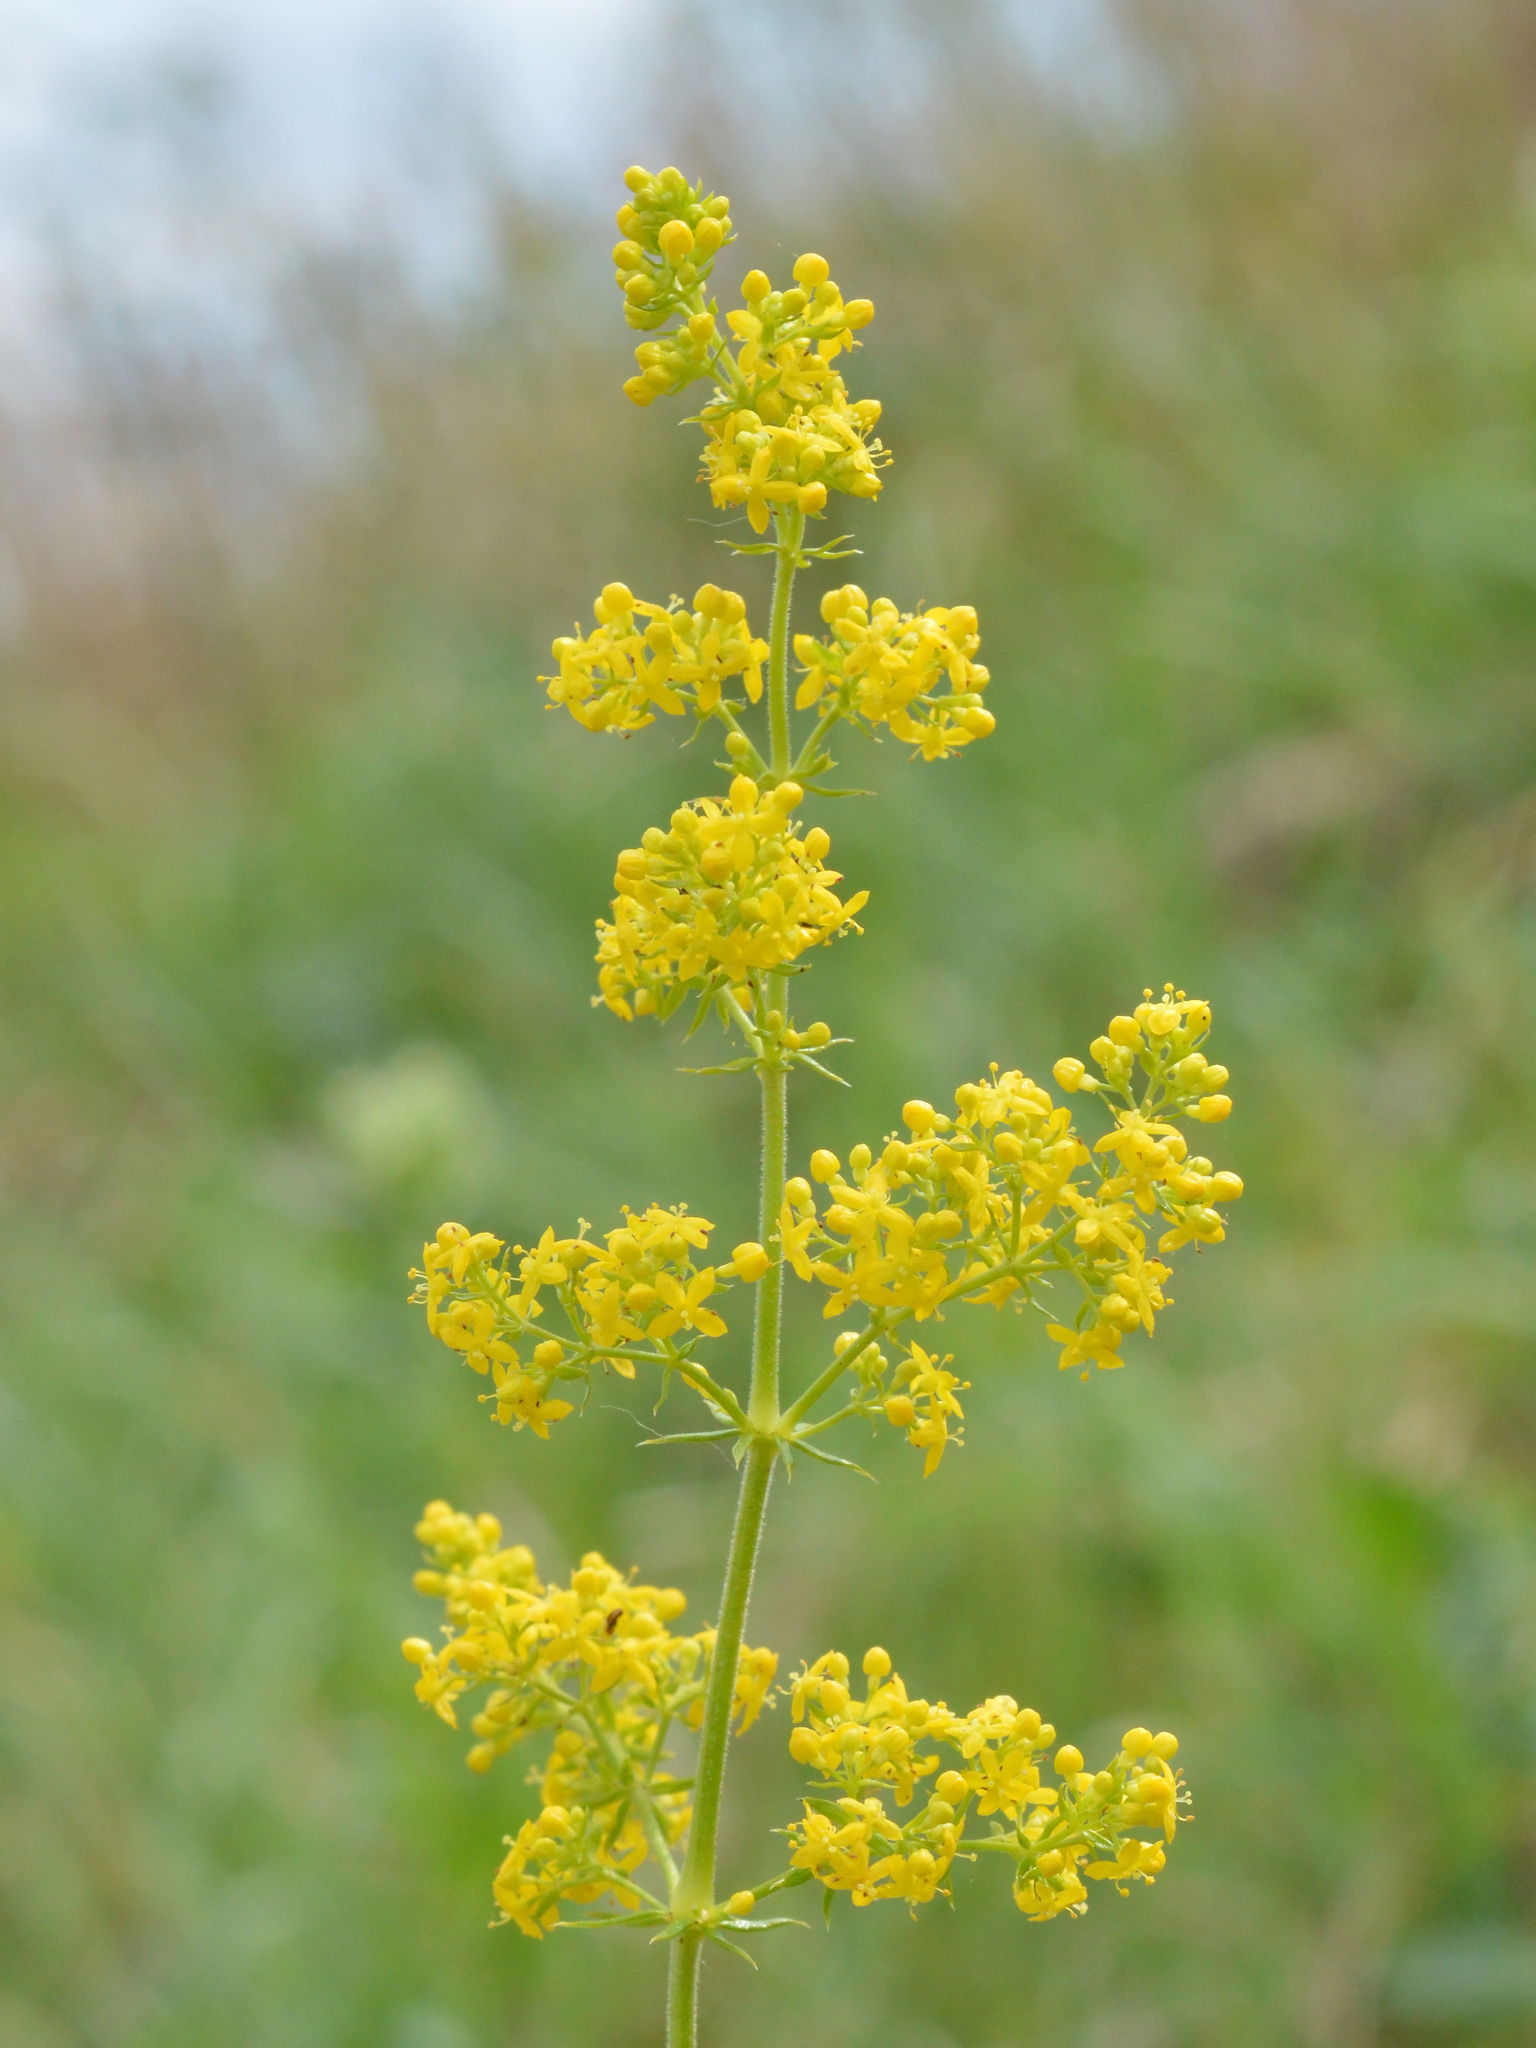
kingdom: Plantae
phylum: Tracheophyta
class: Magnoliopsida
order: Gentianales
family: Rubiaceae
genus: Galium
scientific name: Galium verum
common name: Lady's bedstraw
